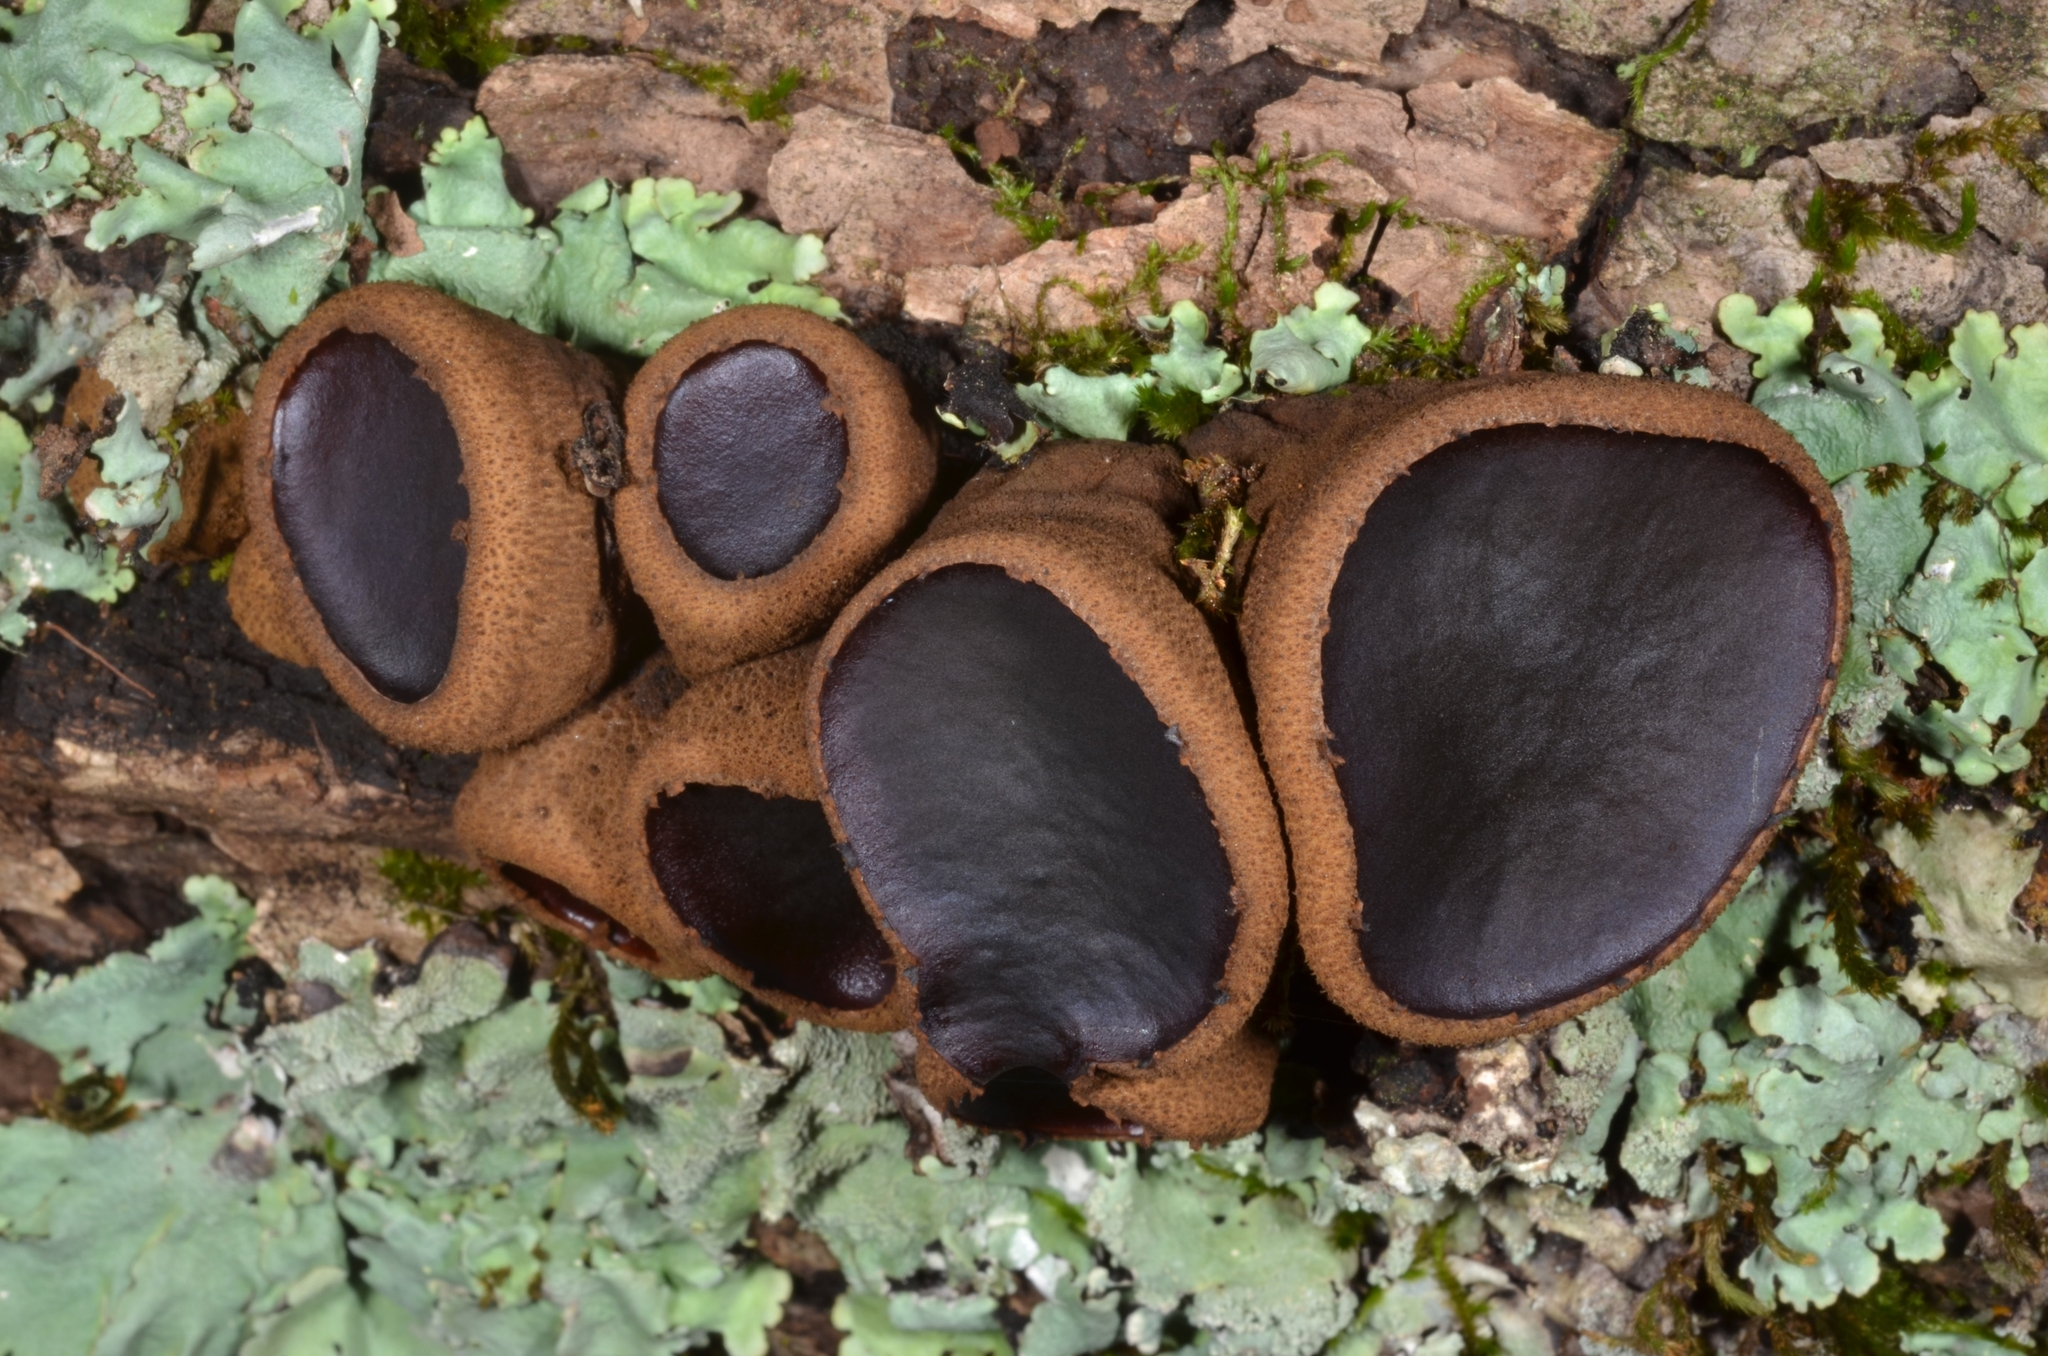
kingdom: Fungi
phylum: Ascomycota
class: Leotiomycetes
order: Phacidiales
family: Phacidiaceae
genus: Bulgaria
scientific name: Bulgaria inquinans
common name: Black bulgar
